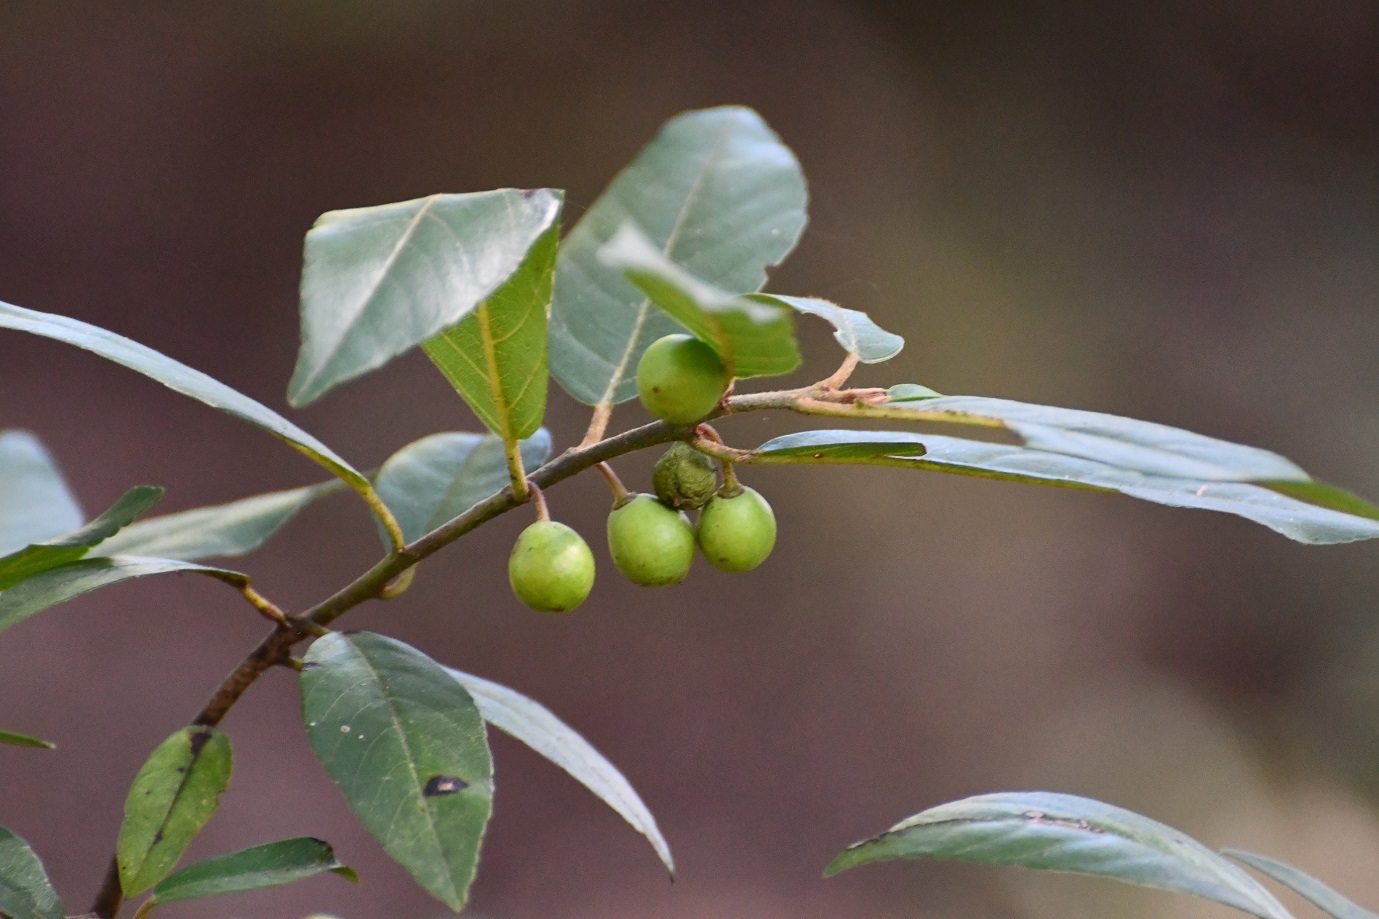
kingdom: Plantae
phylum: Tracheophyta
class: Magnoliopsida
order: Rosales
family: Rhamnaceae
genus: Frangula
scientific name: Frangula mucronata
